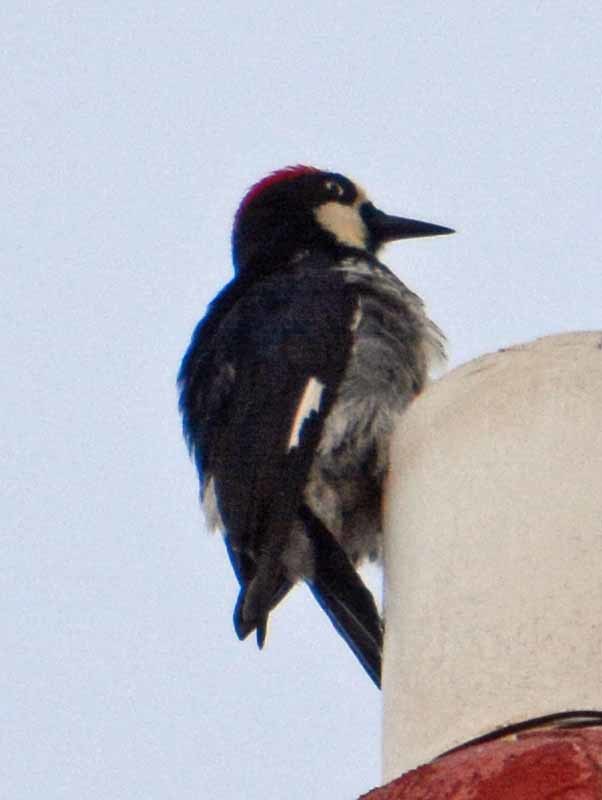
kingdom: Animalia
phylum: Chordata
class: Aves
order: Piciformes
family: Picidae
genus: Melanerpes
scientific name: Melanerpes formicivorus
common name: Acorn woodpecker
